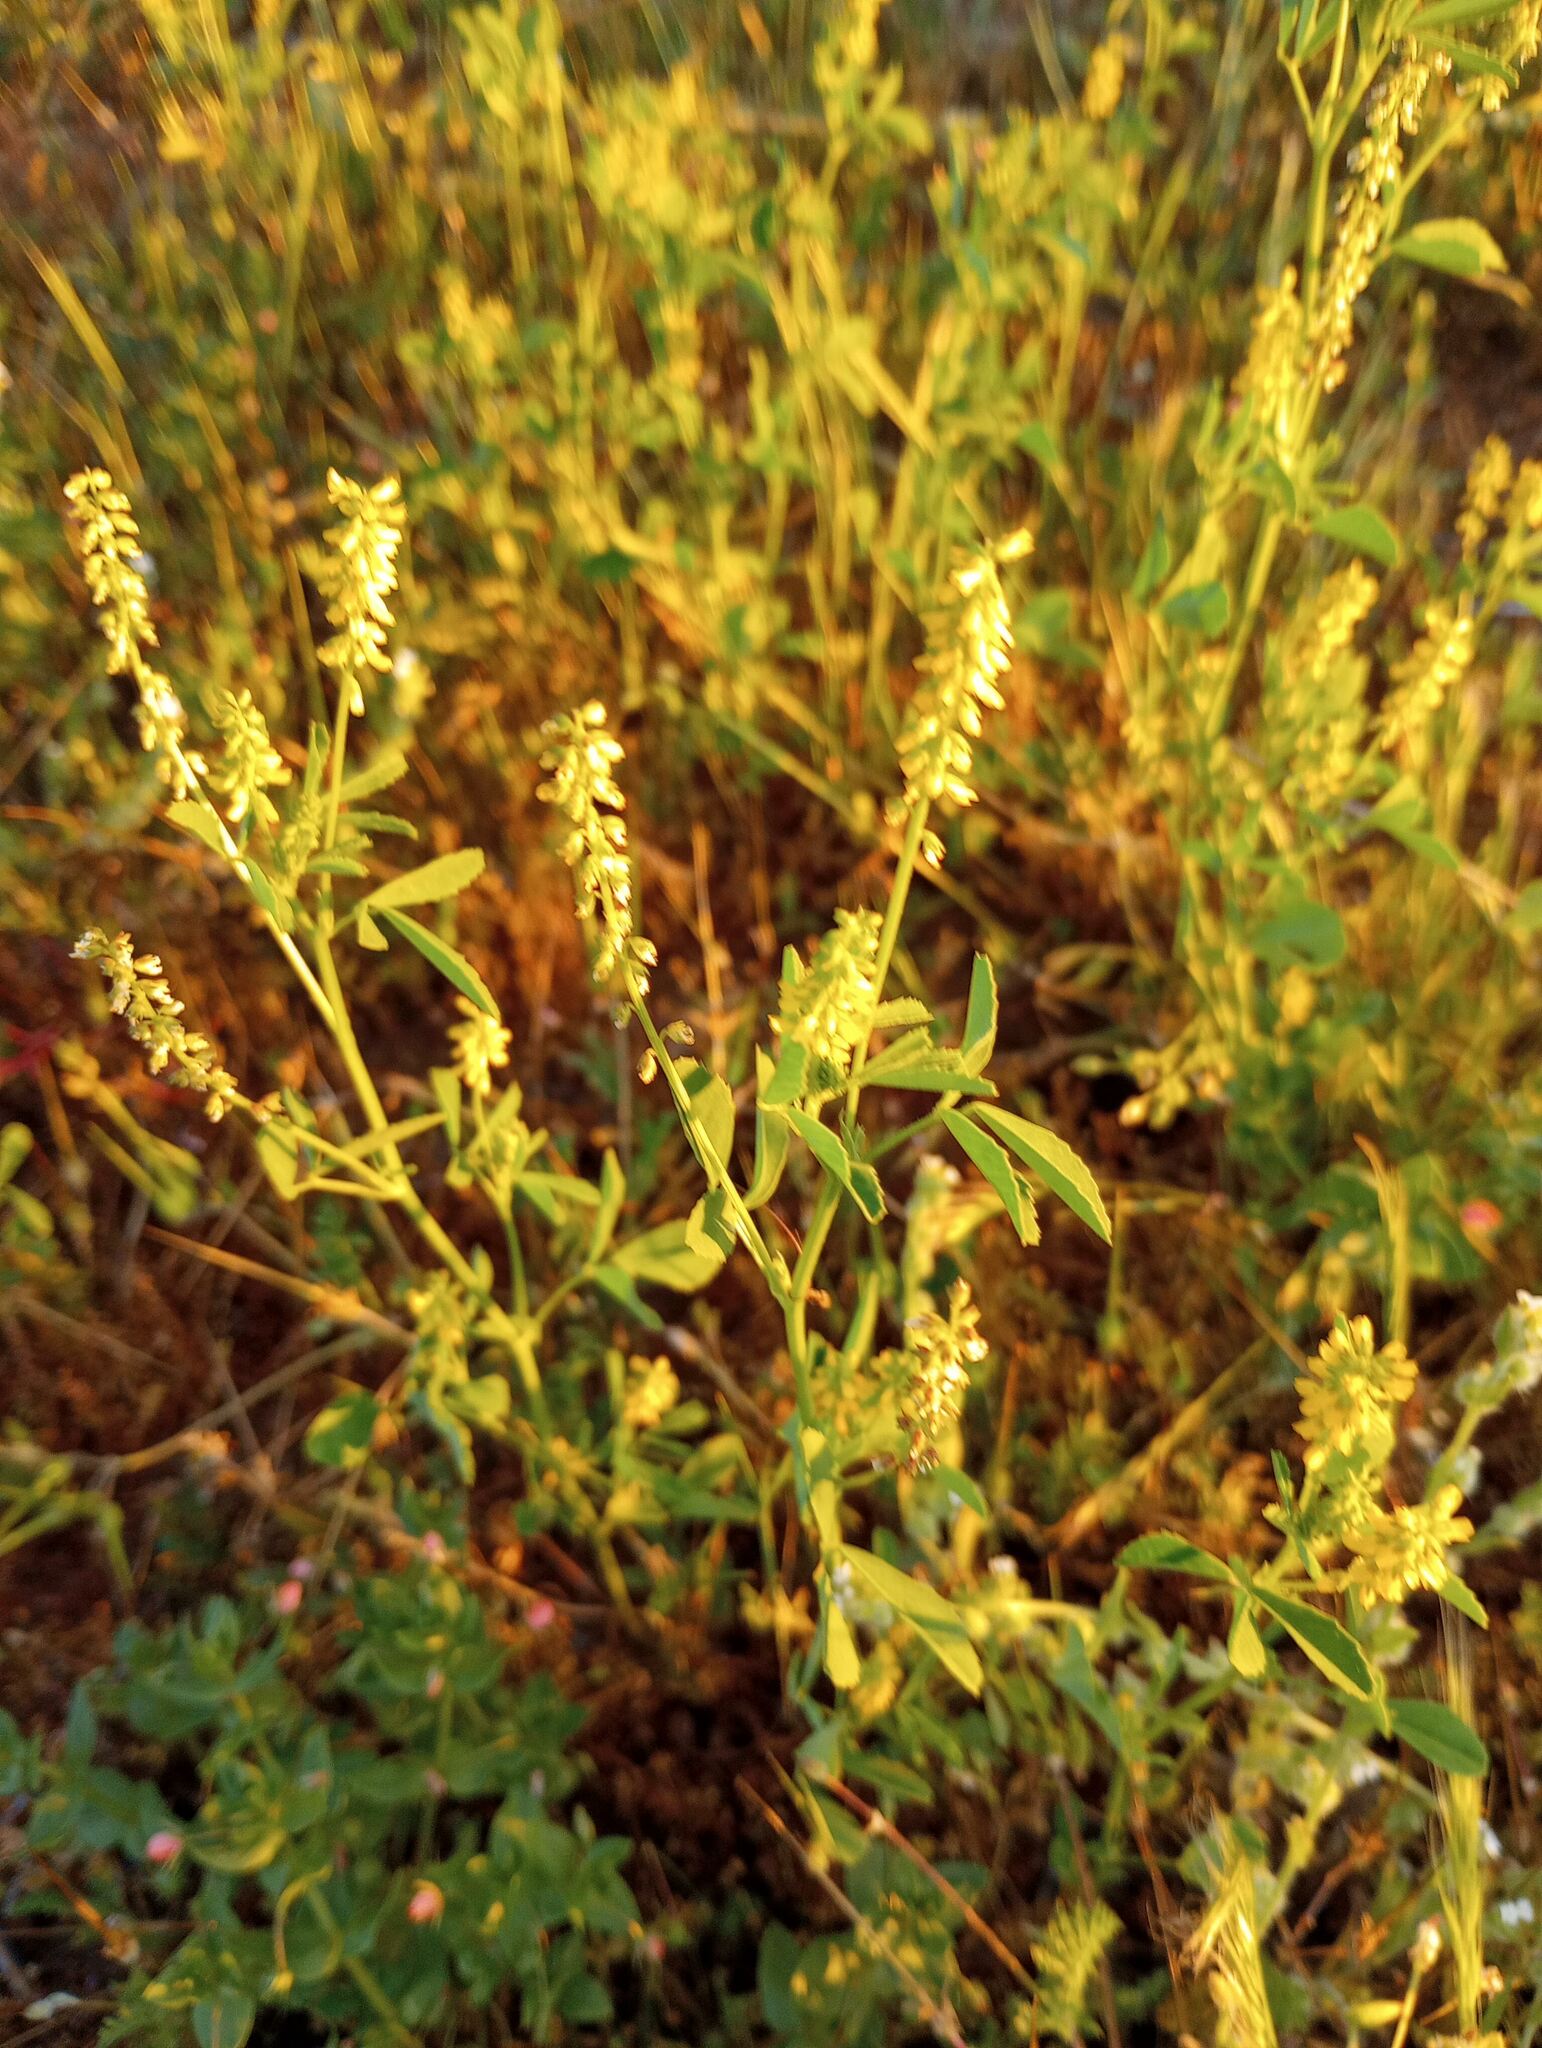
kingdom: Plantae
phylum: Tracheophyta
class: Magnoliopsida
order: Fabales
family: Fabaceae
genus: Melilotus
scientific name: Melilotus indicus
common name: Small melilot
